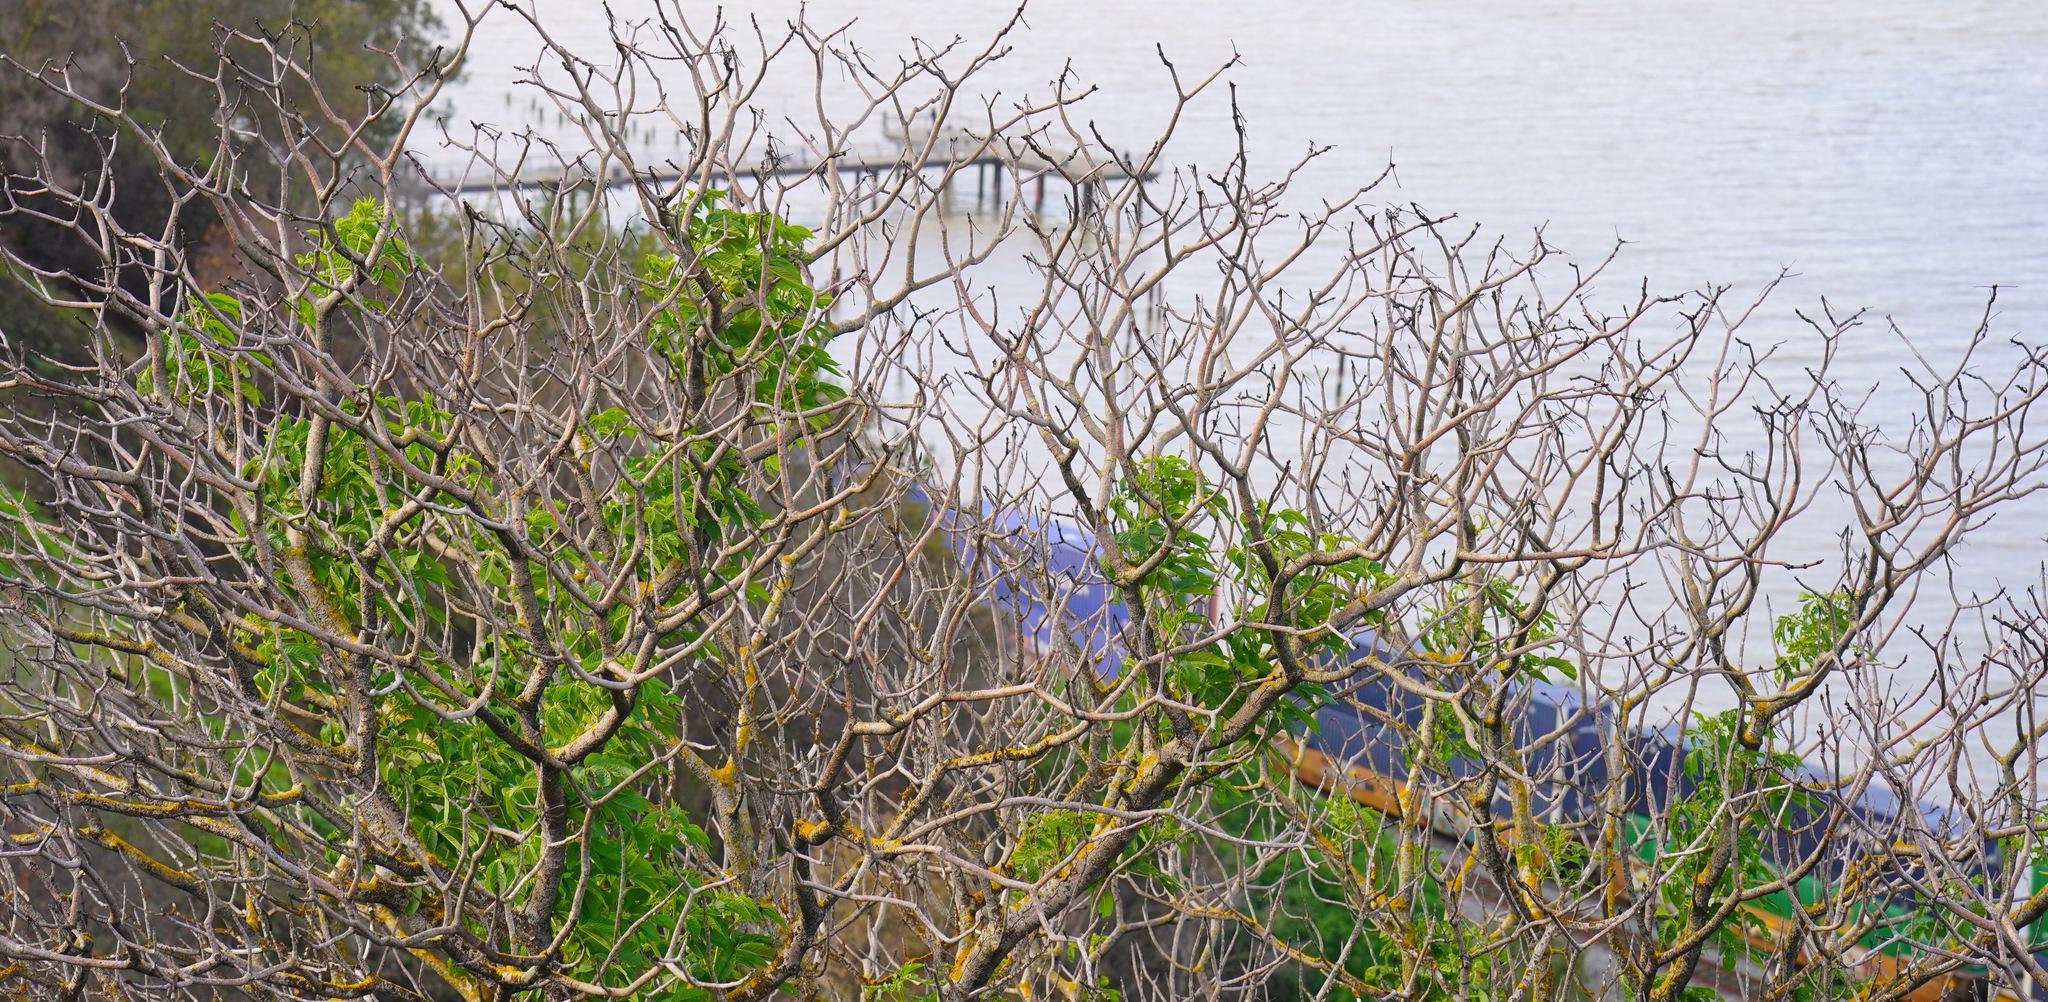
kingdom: Plantae
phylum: Tracheophyta
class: Magnoliopsida
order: Sapindales
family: Sapindaceae
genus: Aesculus
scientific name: Aesculus californica
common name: California buckeye
